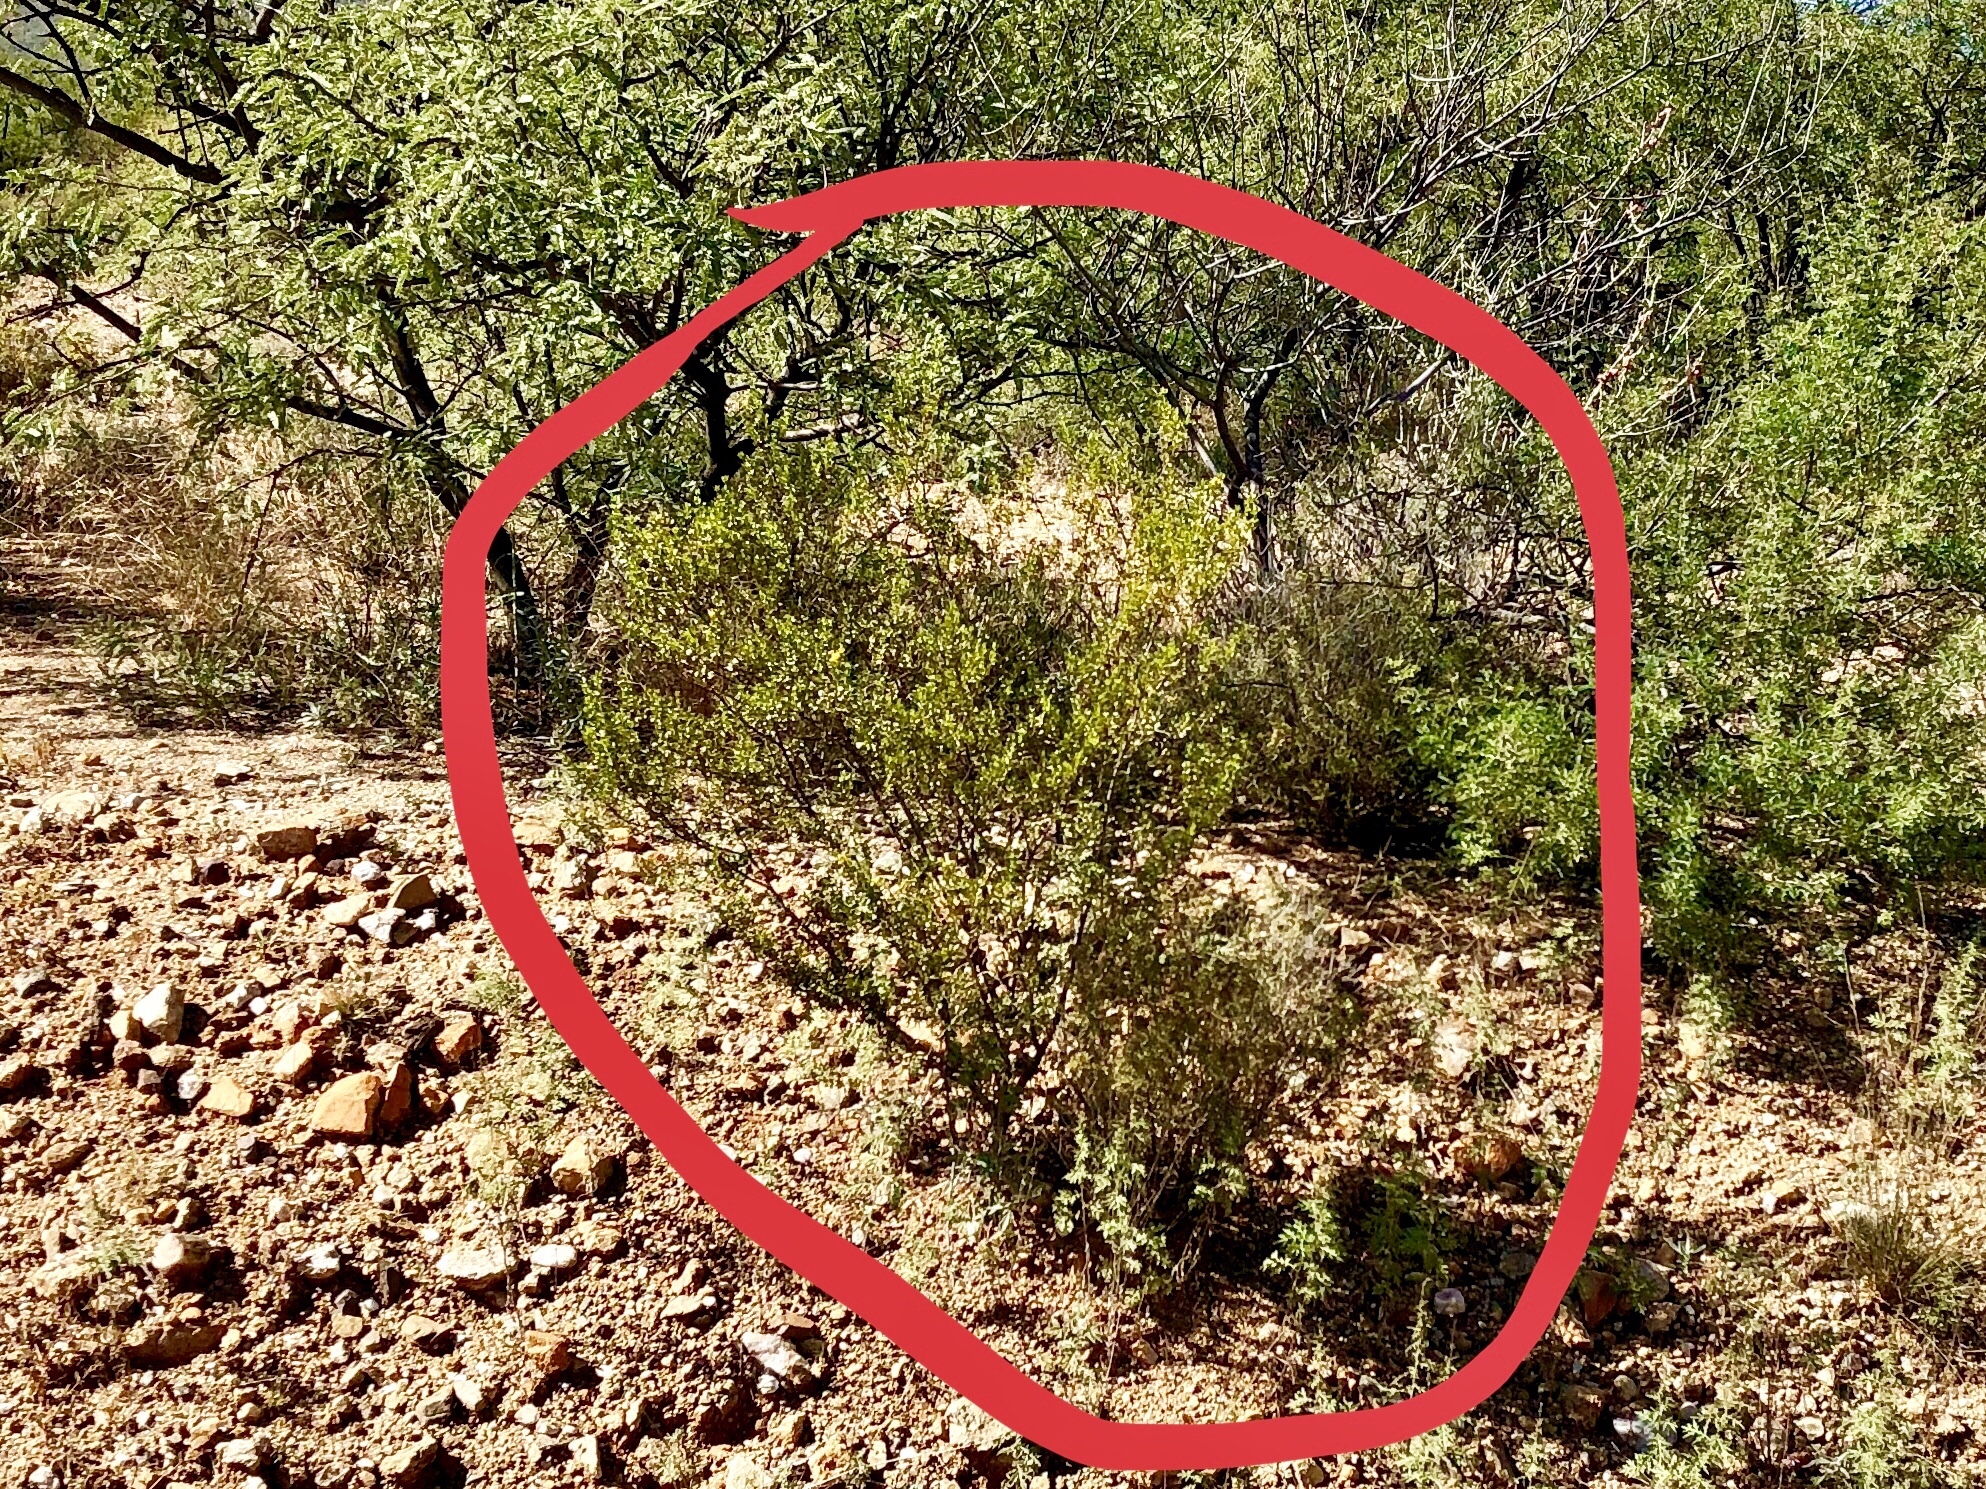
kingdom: Plantae
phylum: Tracheophyta
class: Magnoliopsida
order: Zygophyllales
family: Zygophyllaceae
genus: Larrea
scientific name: Larrea tridentata
